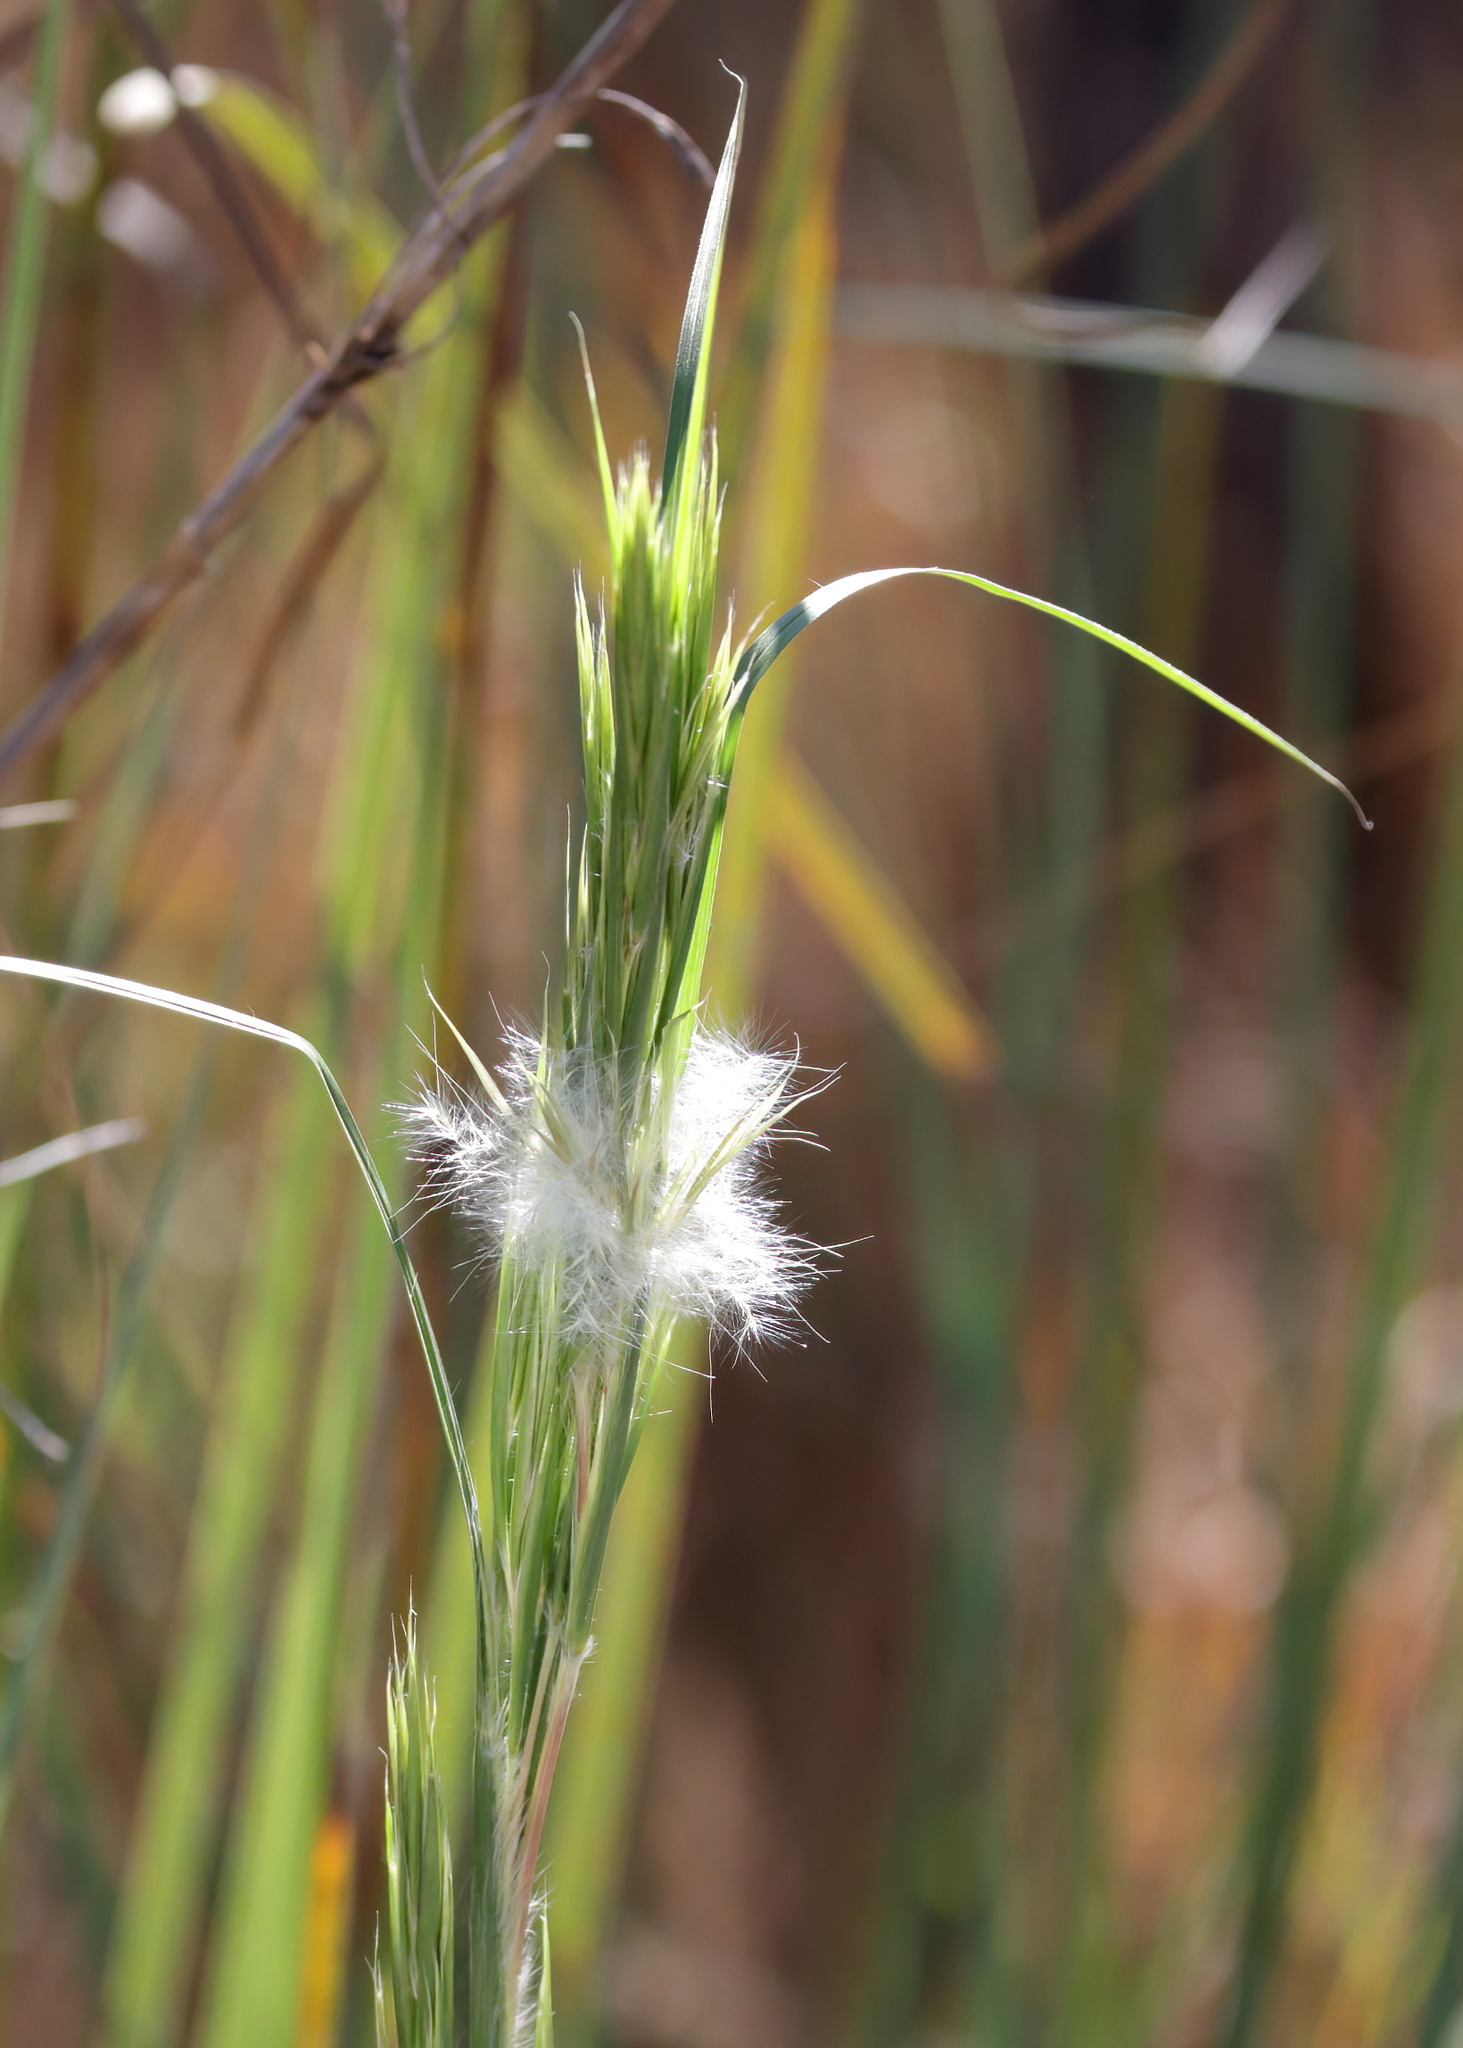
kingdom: Plantae
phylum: Tracheophyta
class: Liliopsida
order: Poales
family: Poaceae
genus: Andropogon
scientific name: Andropogon tenuispatheus
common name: Bushy bluestem
